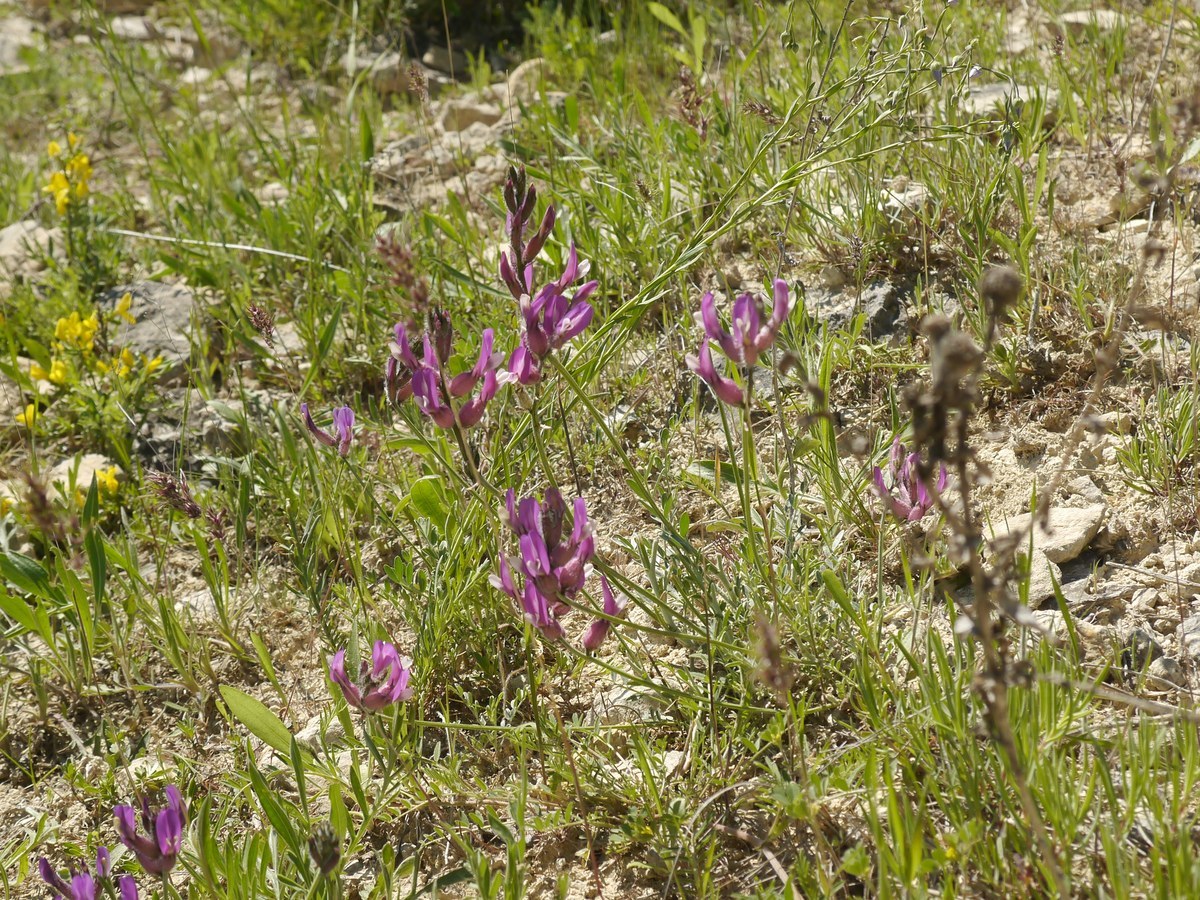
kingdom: Plantae
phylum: Tracheophyta
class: Magnoliopsida
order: Fabales
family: Fabaceae
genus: Astragalus
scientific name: Astragalus vesicarius
